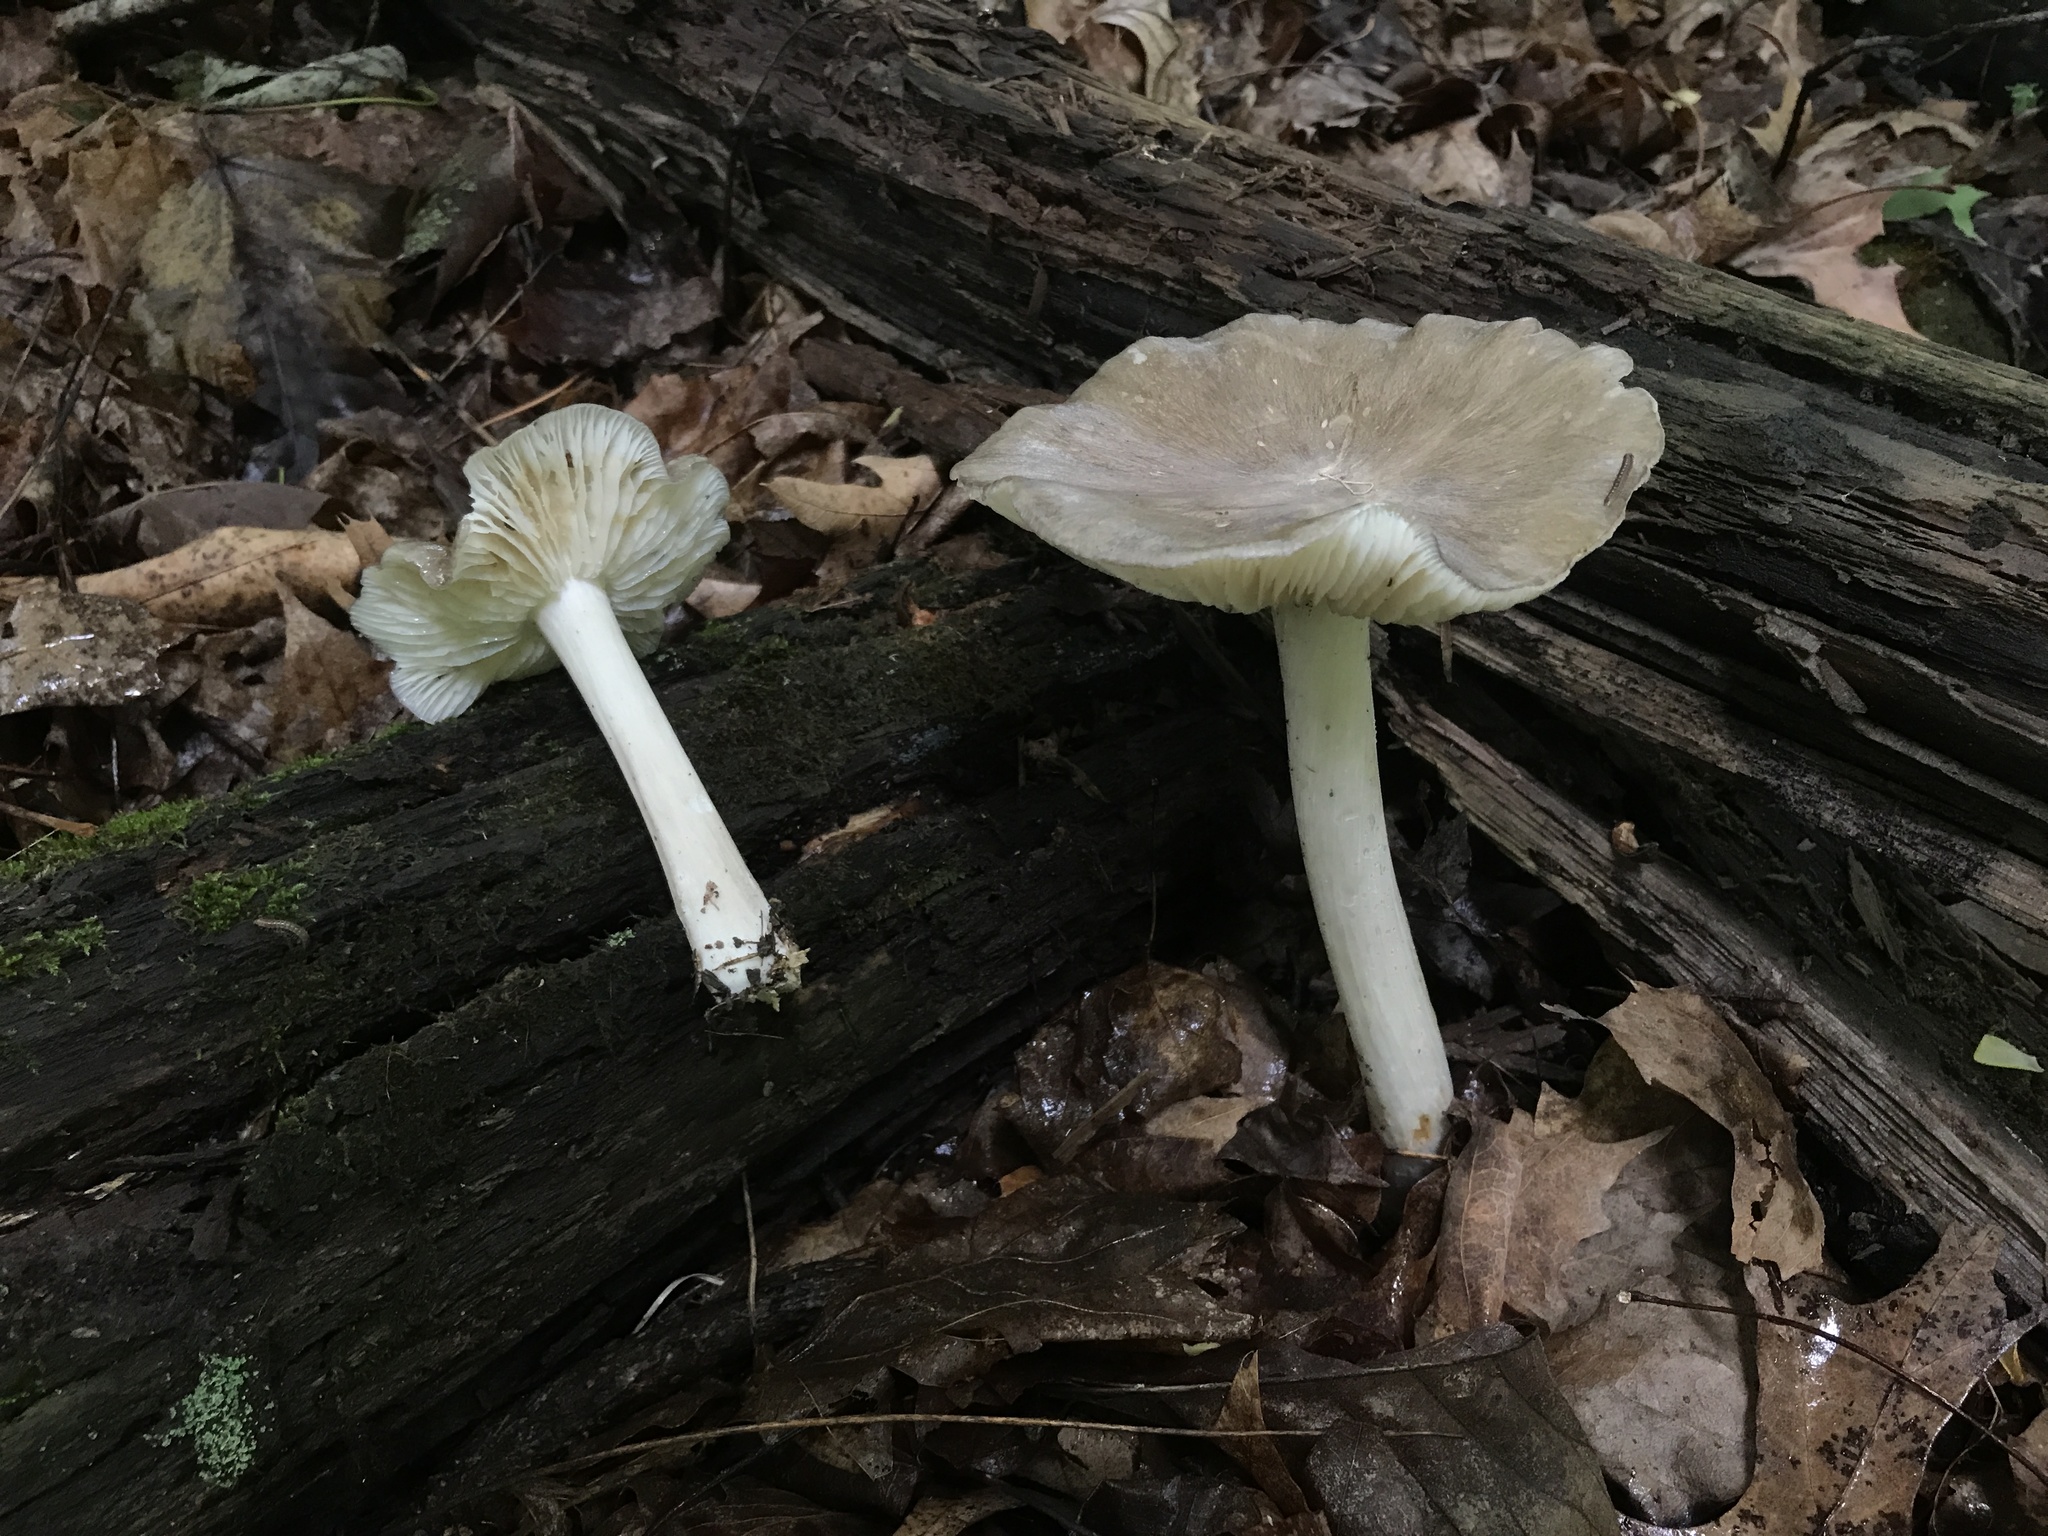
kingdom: Fungi
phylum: Basidiomycota
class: Agaricomycetes
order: Agaricales
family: Tricholomataceae
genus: Megacollybia
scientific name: Megacollybia rodmanii
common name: Eastern american platterful mushroom
